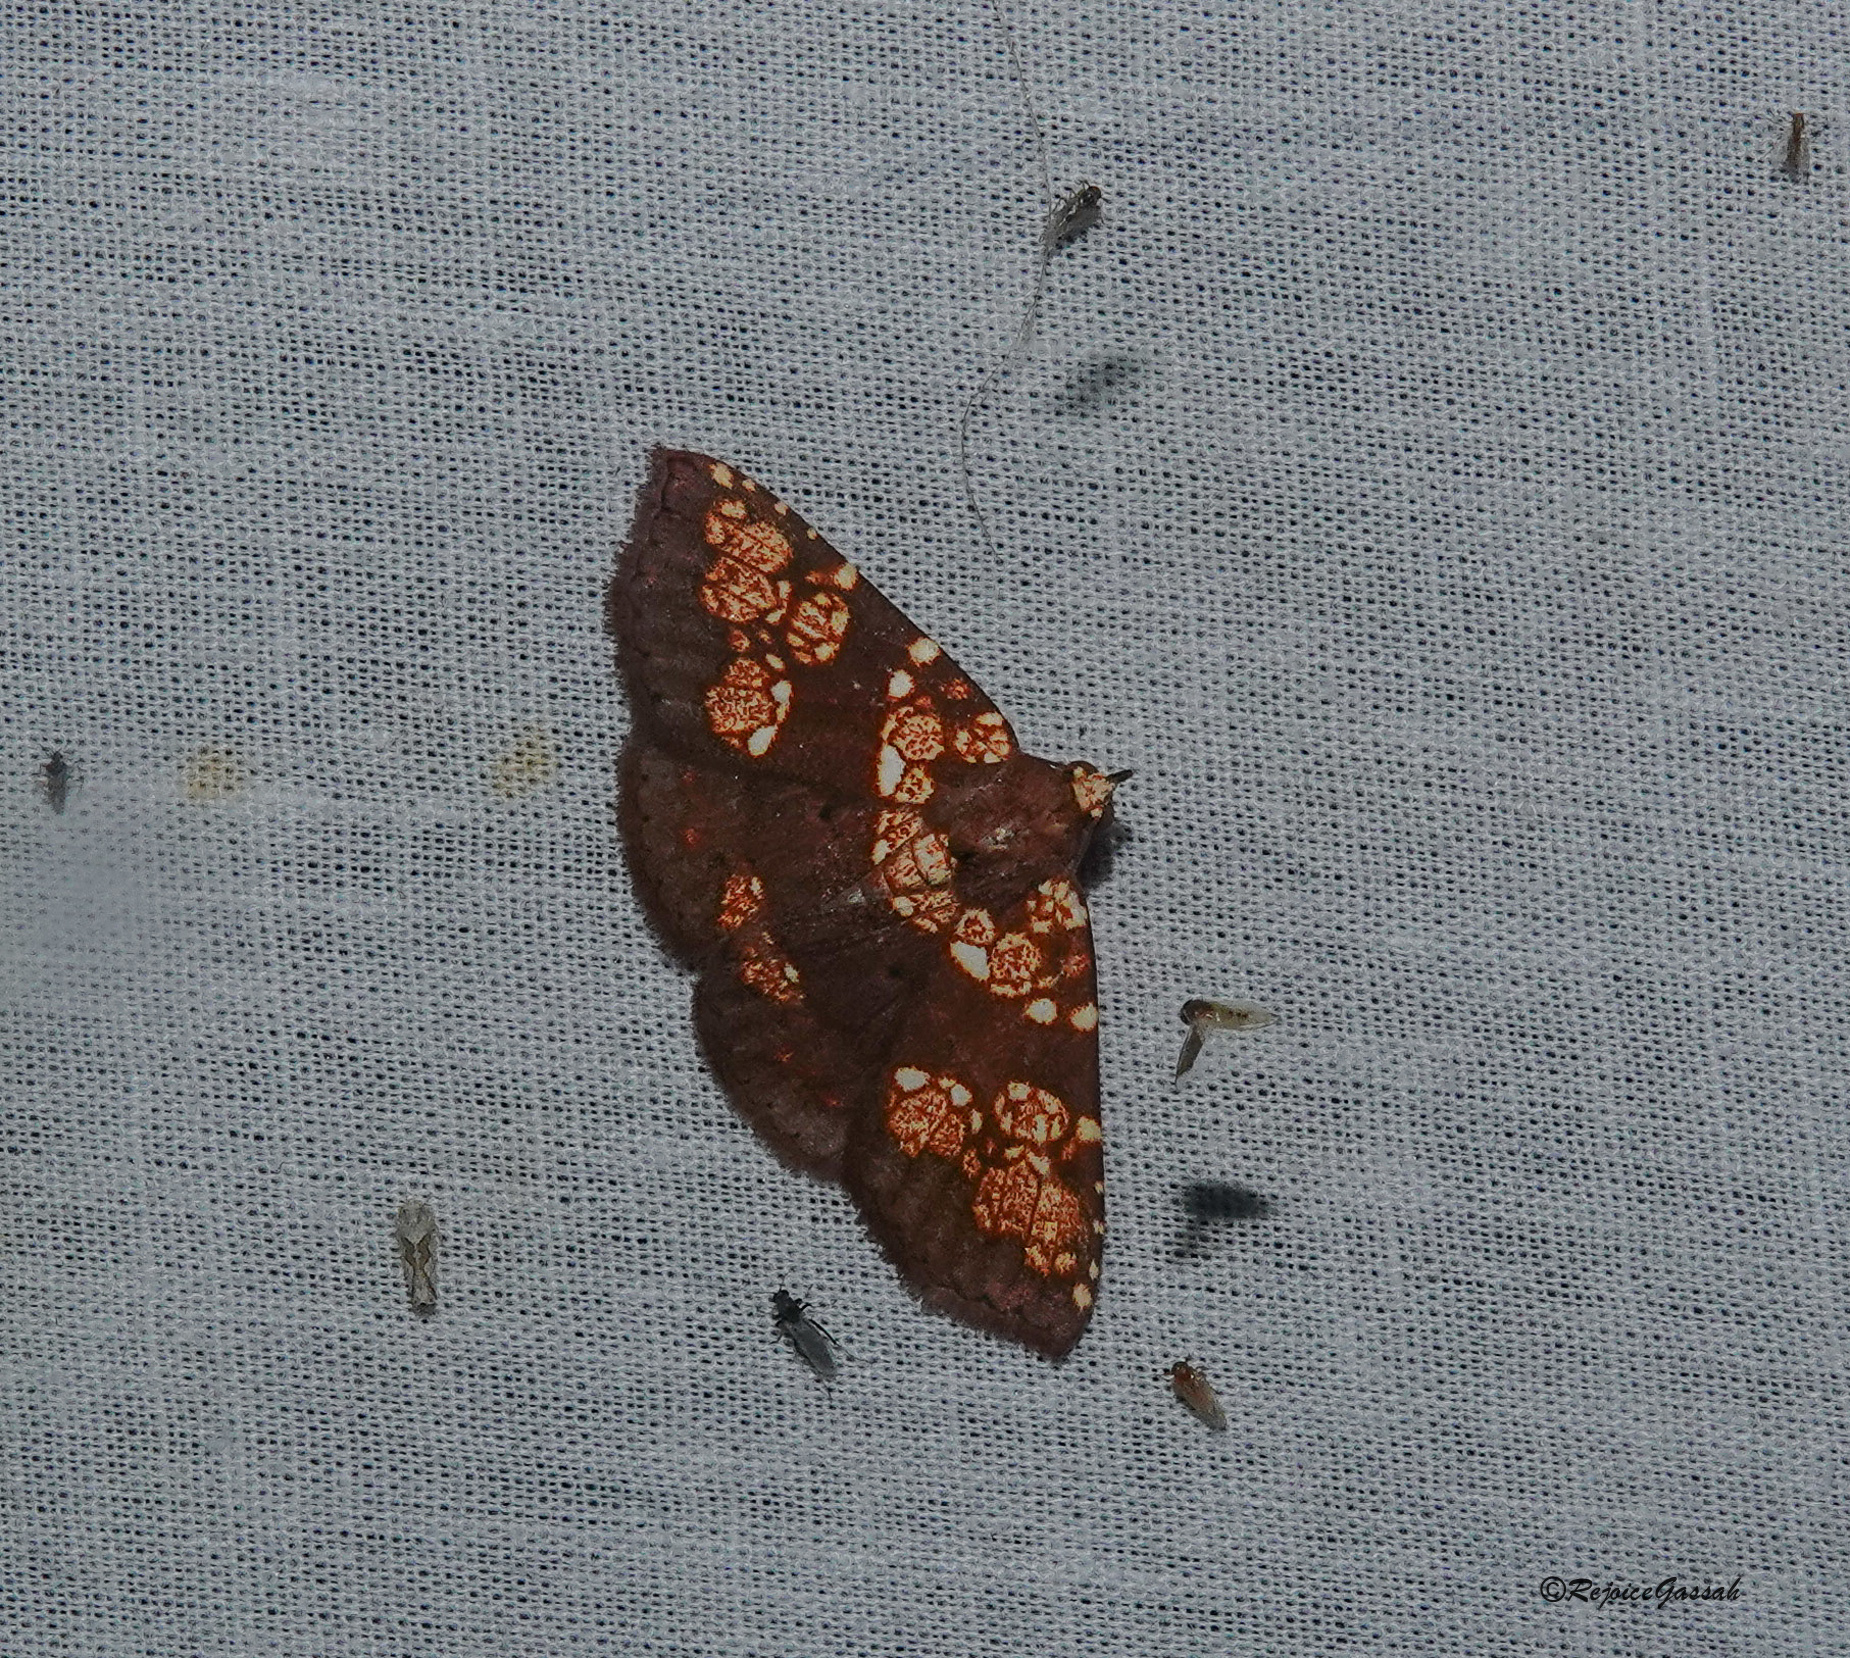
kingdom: Animalia
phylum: Arthropoda
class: Insecta
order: Lepidoptera
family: Erebidae
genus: Saroba
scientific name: Saroba pustulifera
